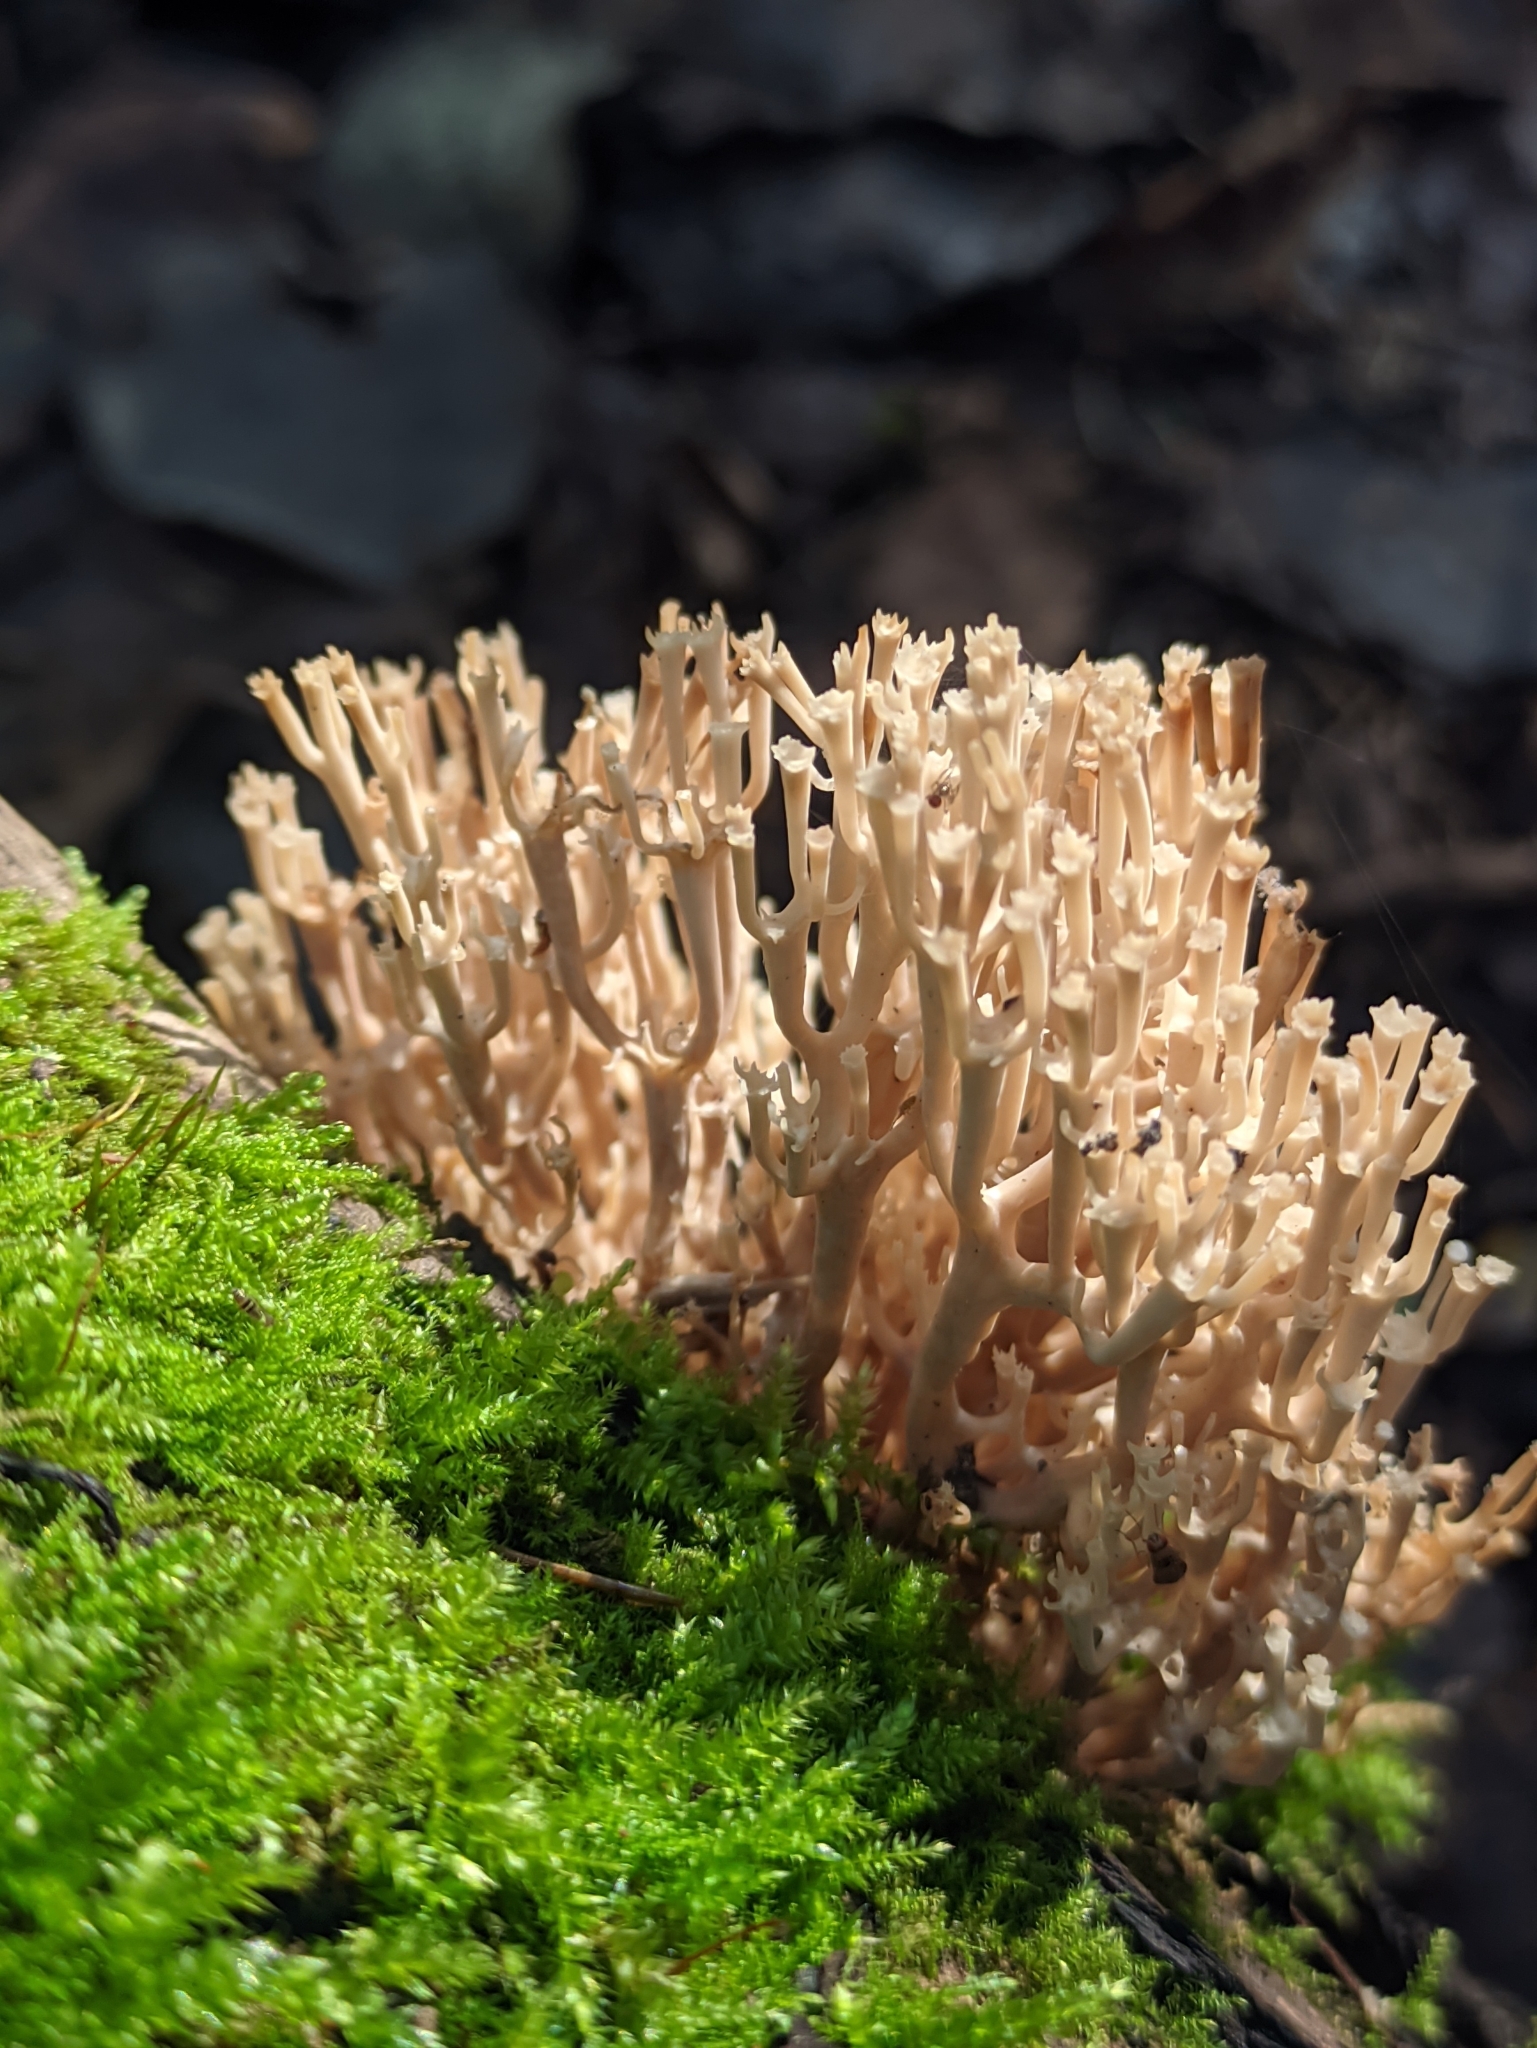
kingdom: Fungi
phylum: Basidiomycota
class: Agaricomycetes
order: Russulales
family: Auriscalpiaceae
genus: Artomyces
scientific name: Artomyces pyxidatus
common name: Crown-tipped coral fungus
